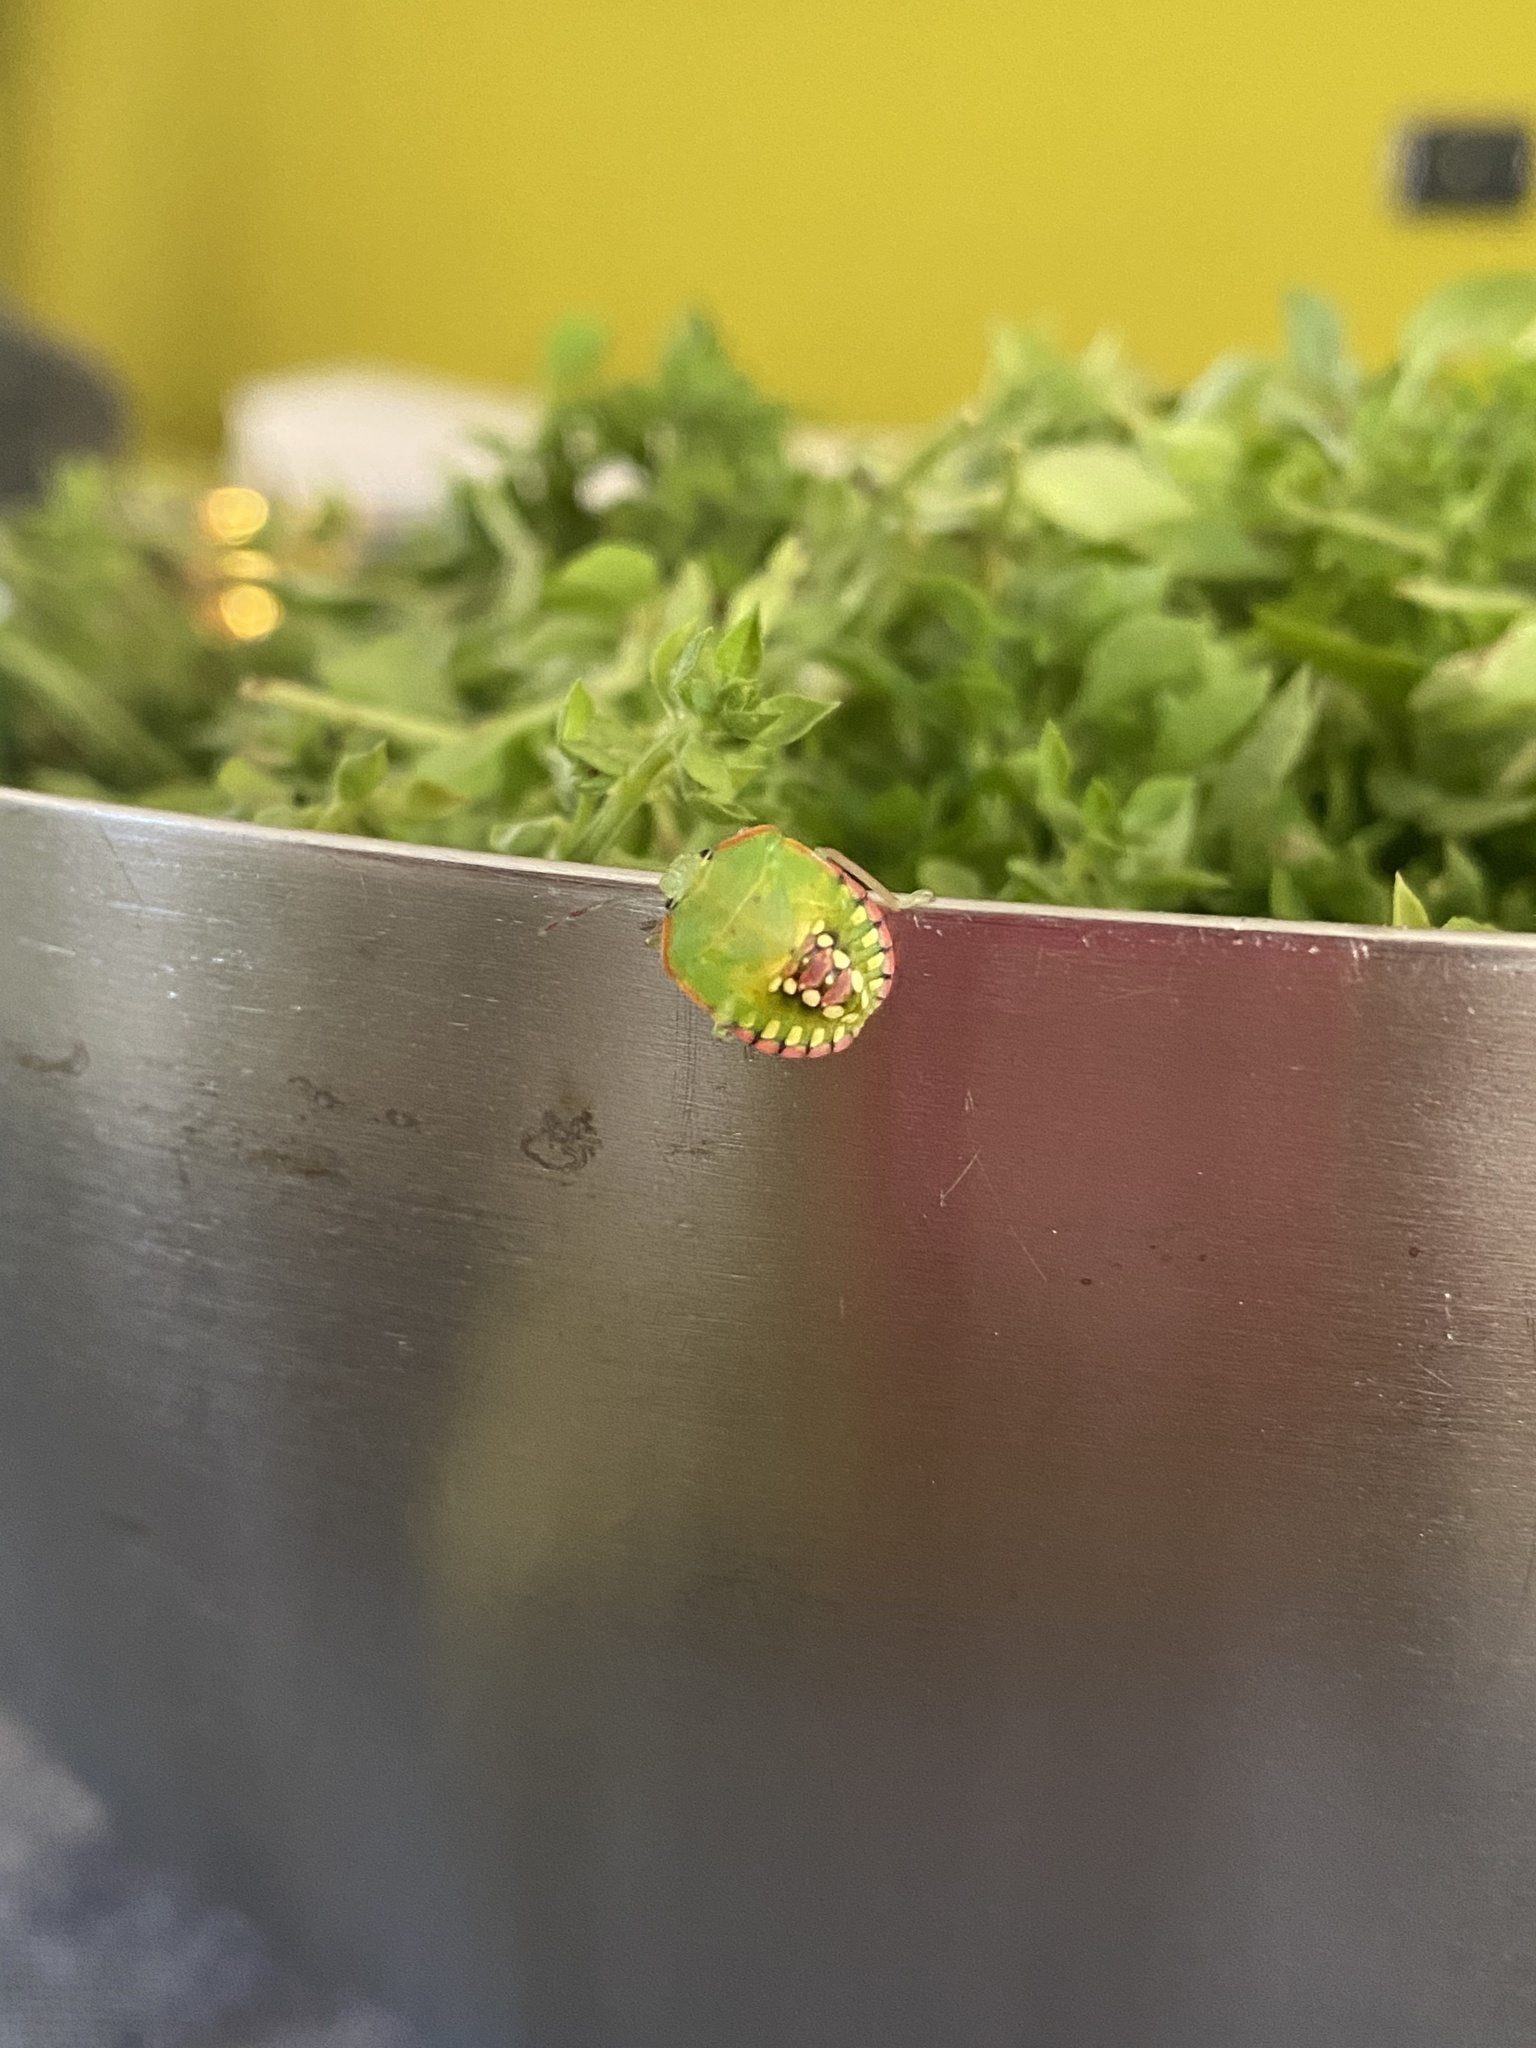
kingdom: Animalia
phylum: Arthropoda
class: Insecta
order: Hemiptera
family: Pentatomidae
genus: Nezara
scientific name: Nezara viridula
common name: Southern green stink bug
